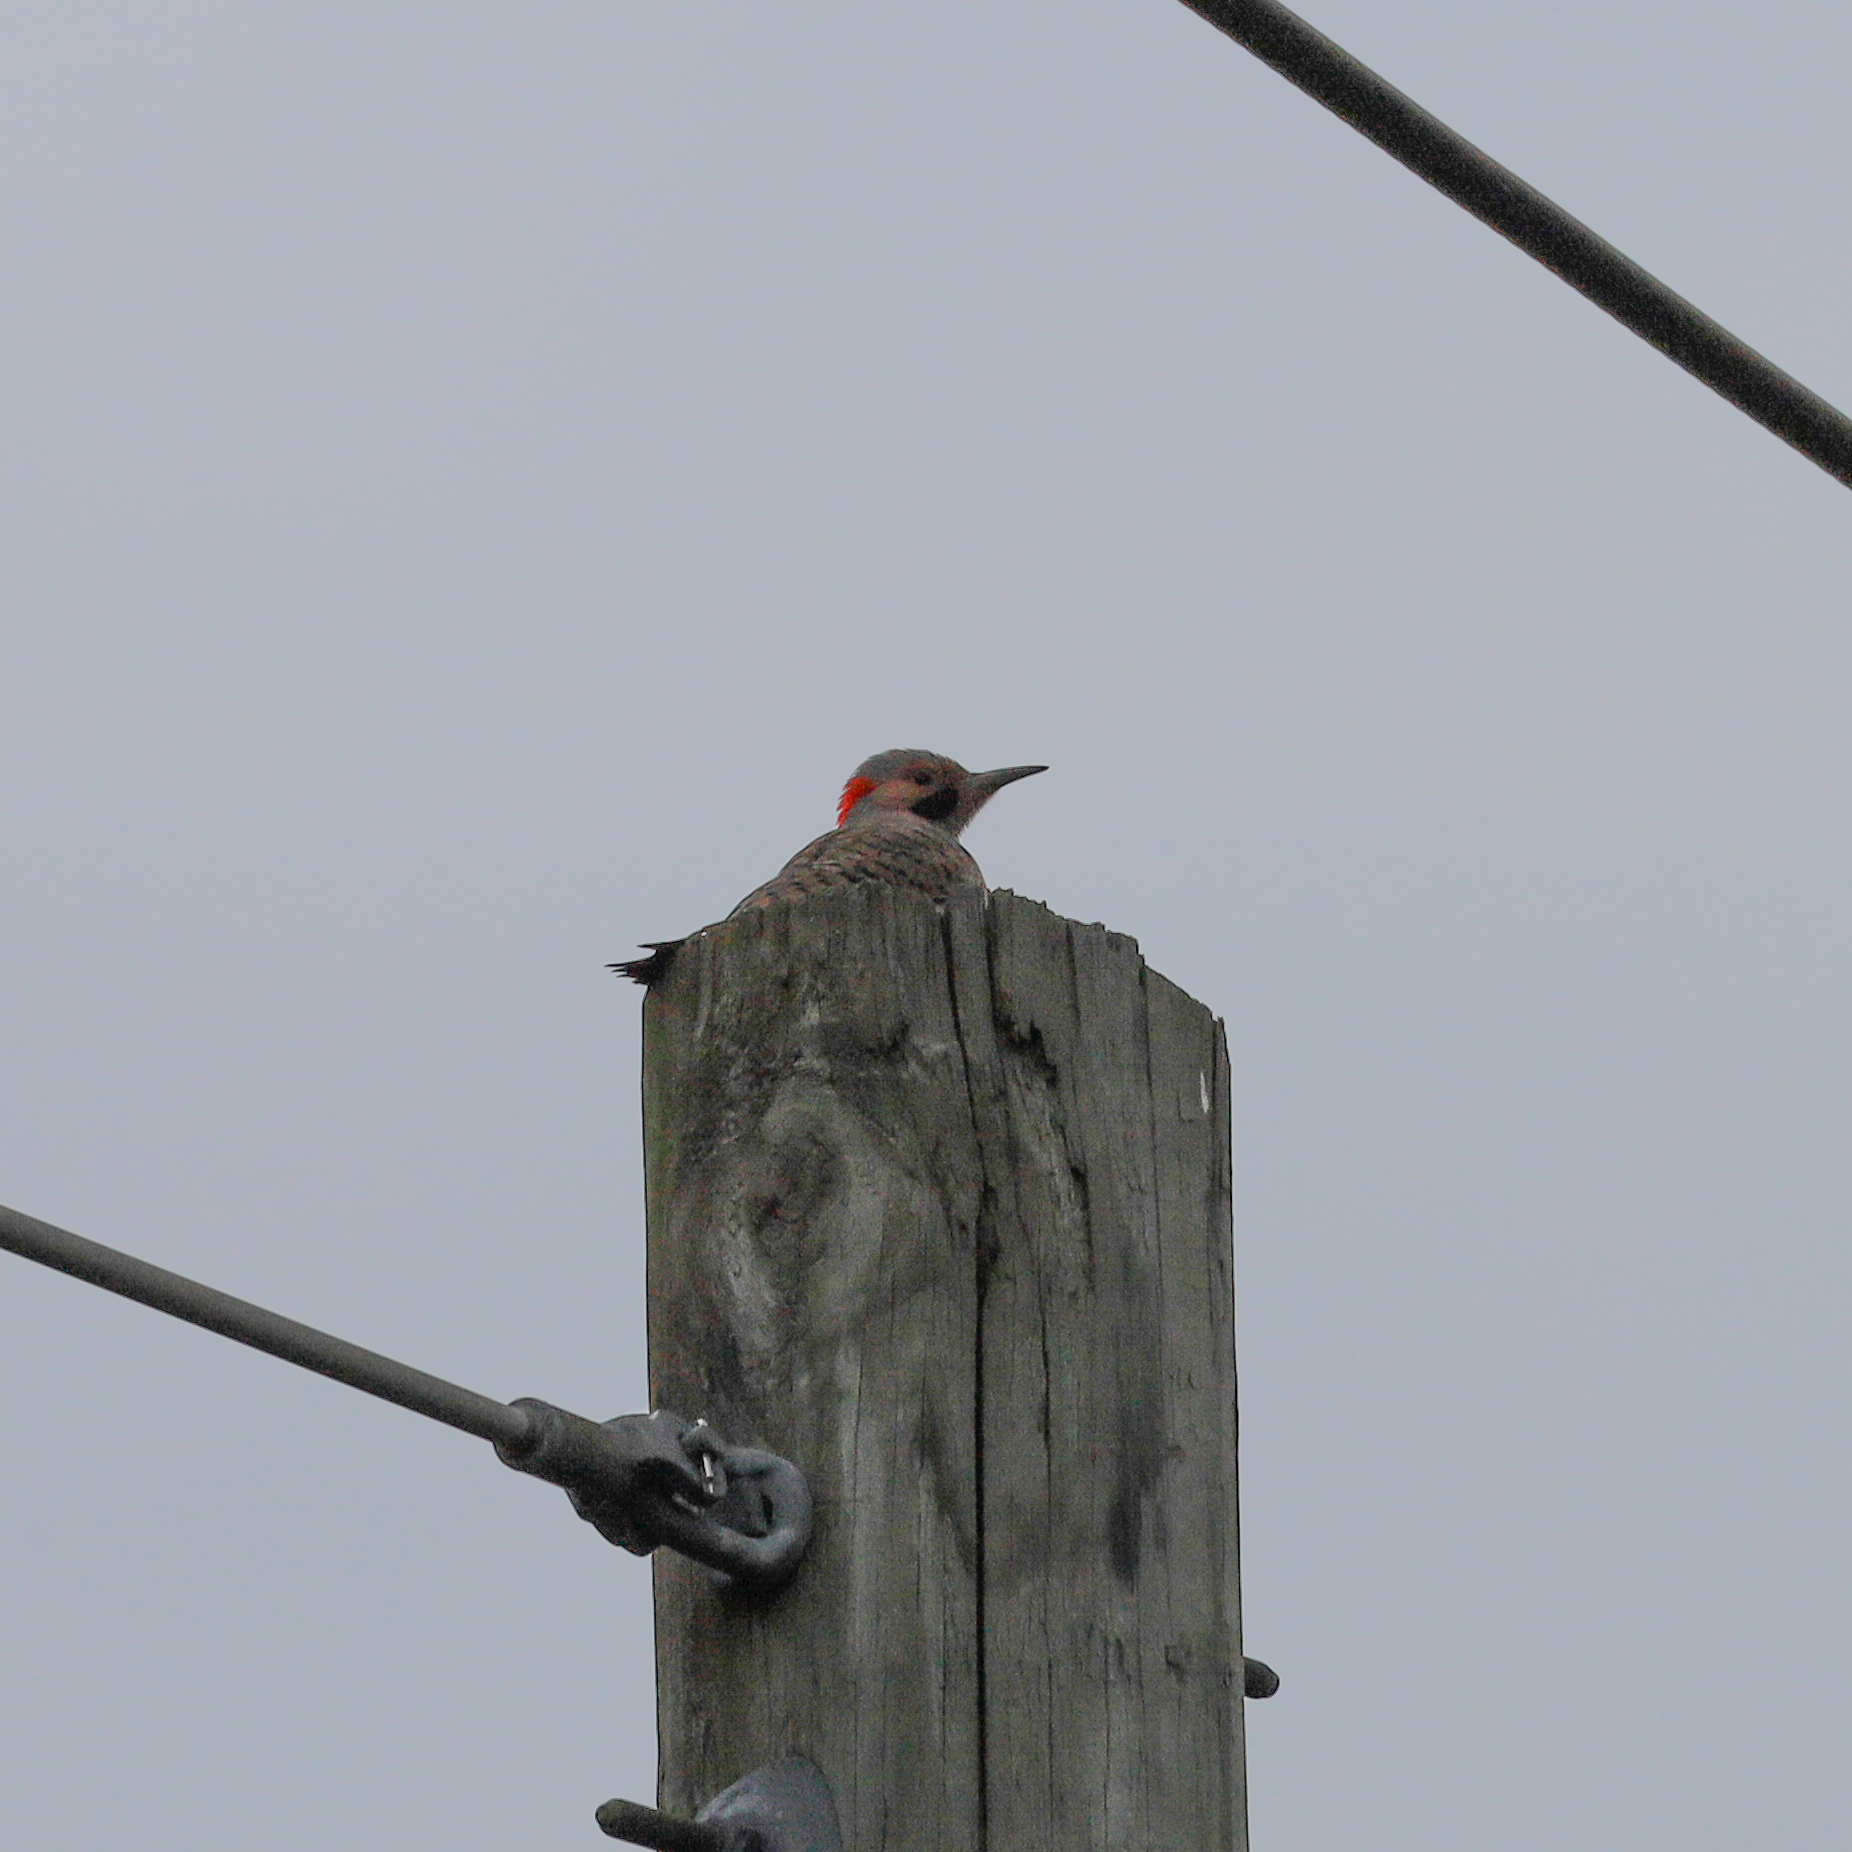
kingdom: Animalia
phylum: Chordata
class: Aves
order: Piciformes
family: Picidae
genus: Colaptes
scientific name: Colaptes auratus
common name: Northern flicker
